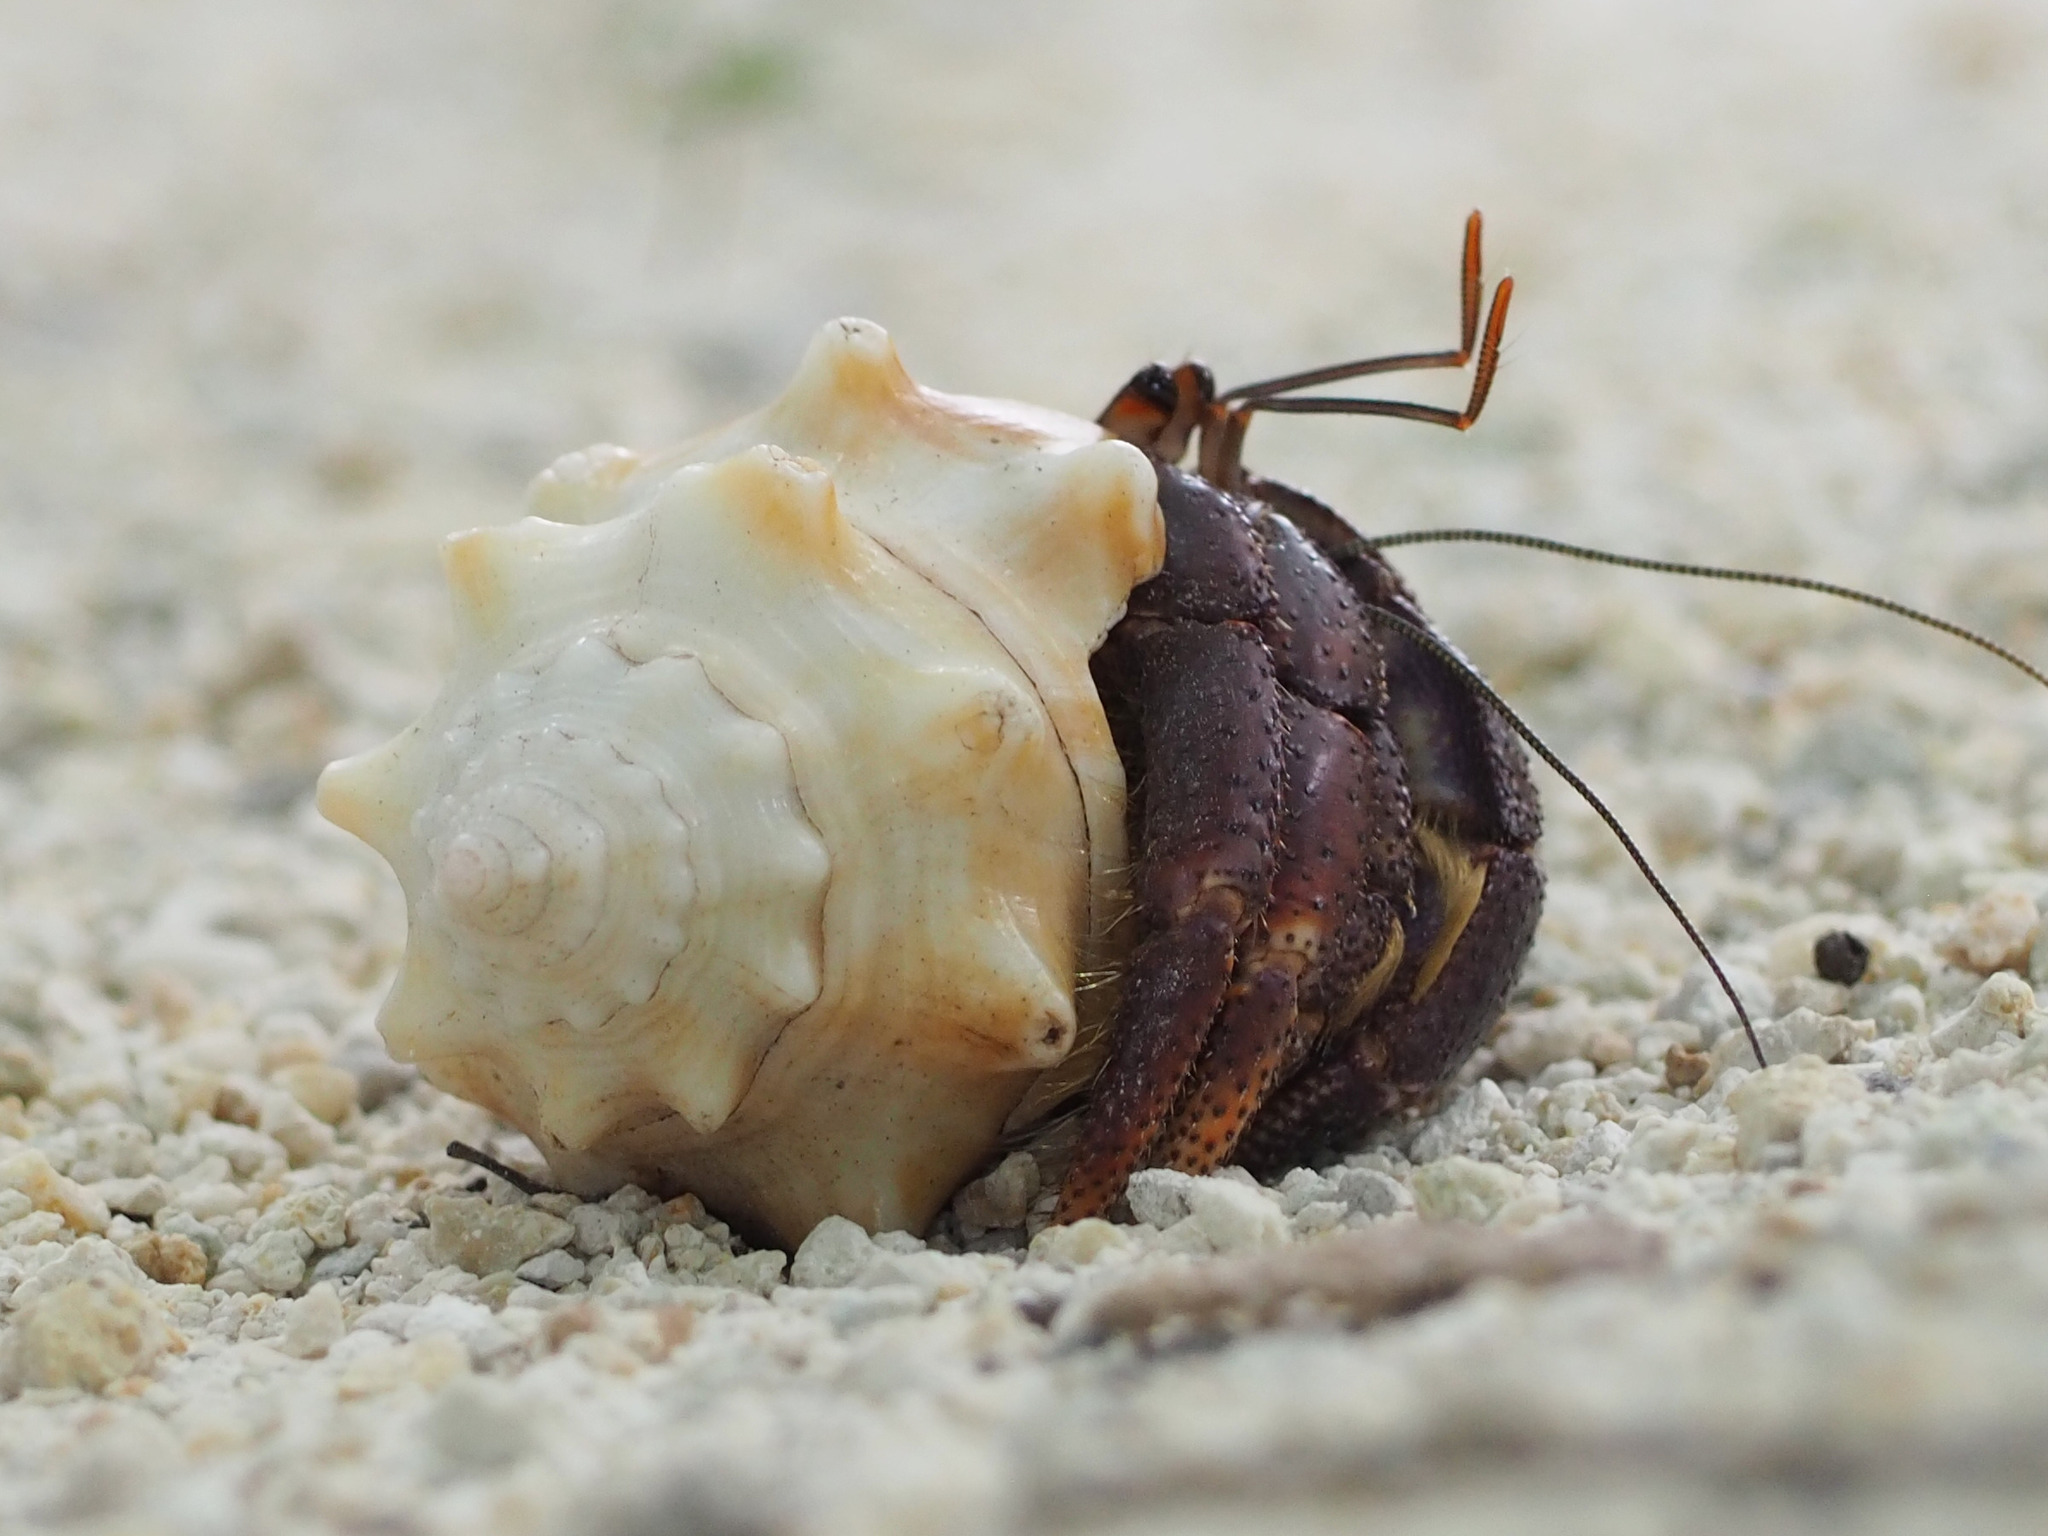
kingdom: Animalia
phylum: Arthropoda
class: Malacostraca
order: Decapoda
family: Coenobitidae
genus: Coenobita
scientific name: Coenobita clypeatus
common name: Caribbean hermit crab
